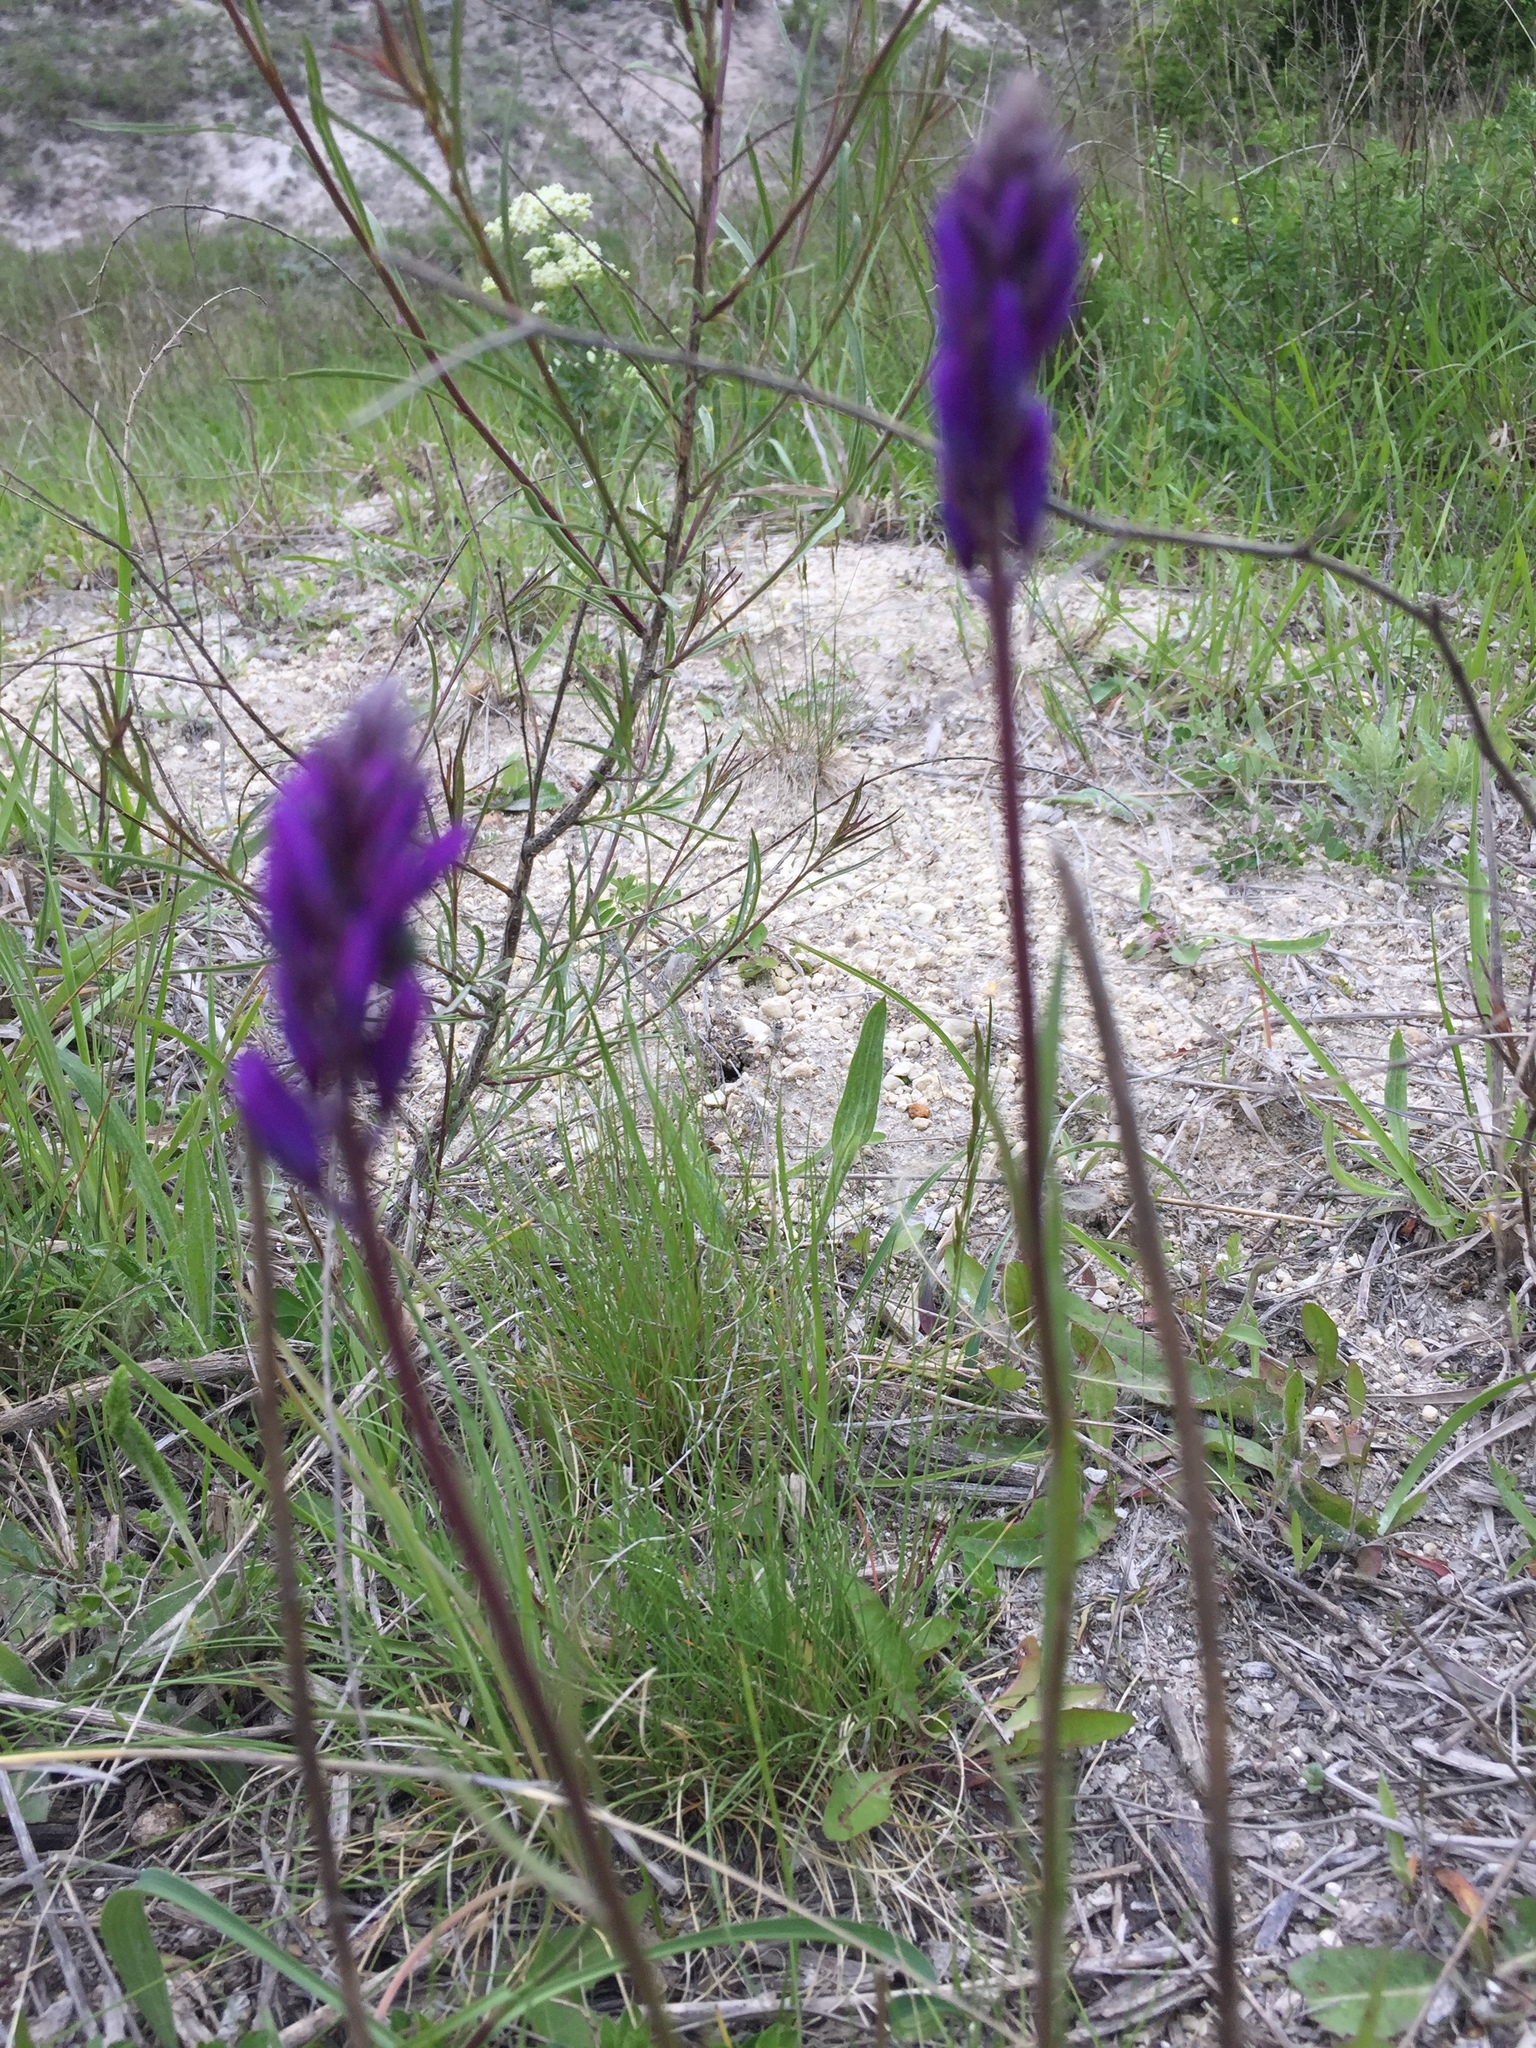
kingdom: Plantae
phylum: Tracheophyta
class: Magnoliopsida
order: Fabales
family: Polygalaceae
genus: Polygala
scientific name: Polygala nicaeensis
